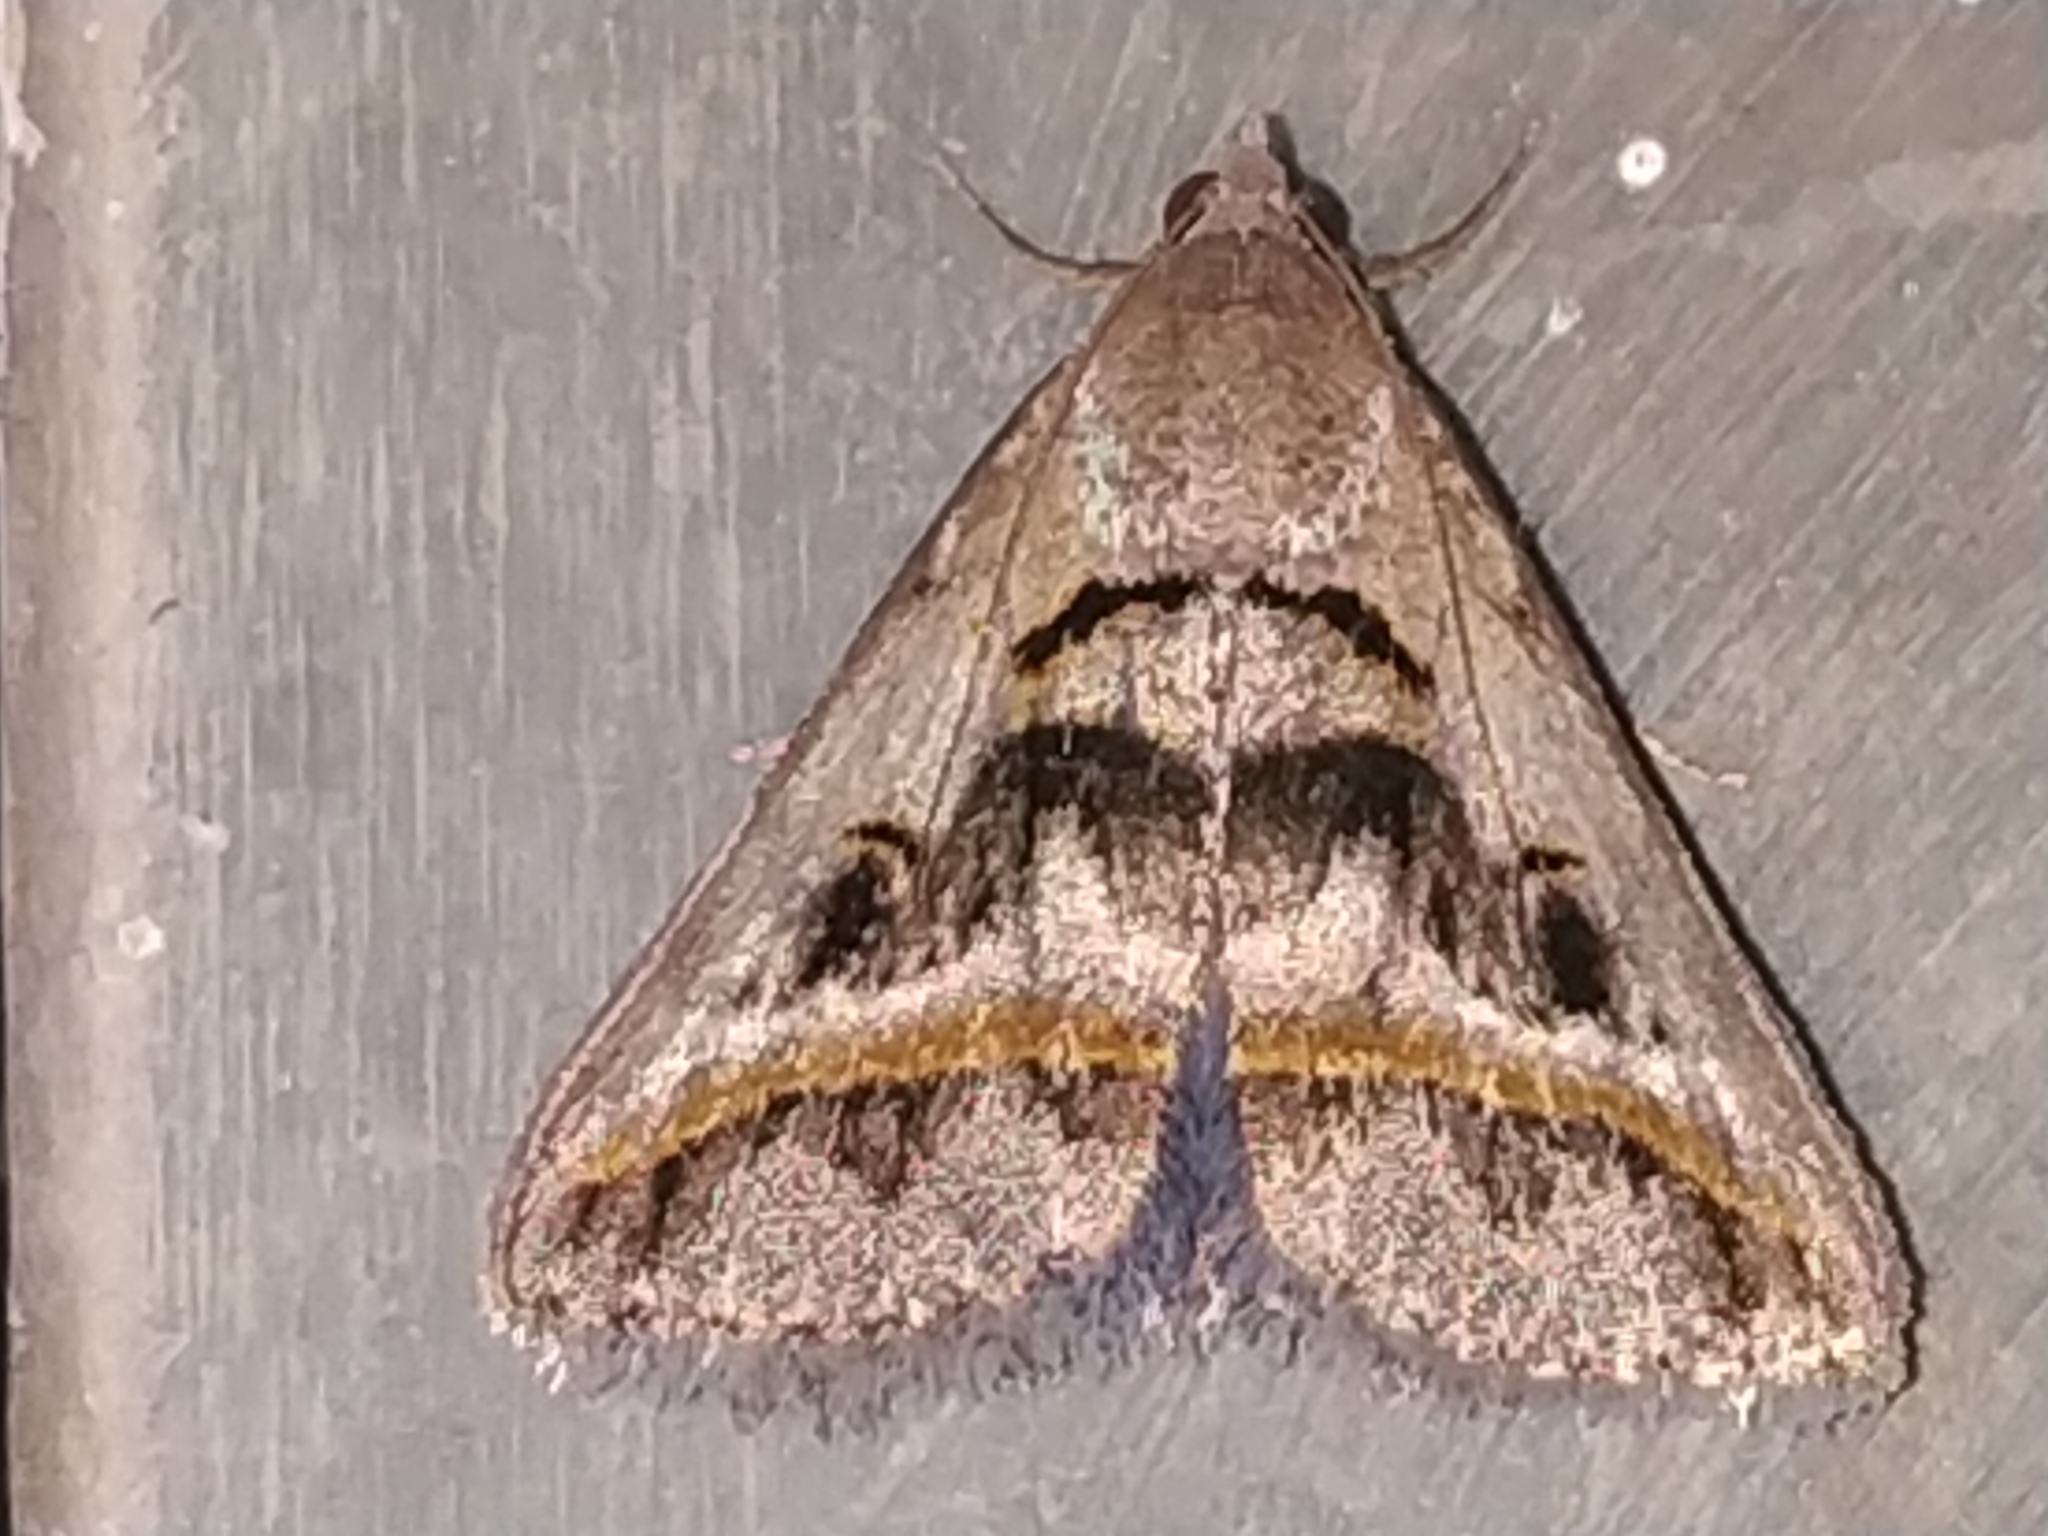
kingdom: Animalia
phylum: Arthropoda
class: Insecta
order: Lepidoptera
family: Erebidae
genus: Acantholipes
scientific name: Acantholipes trajecta
